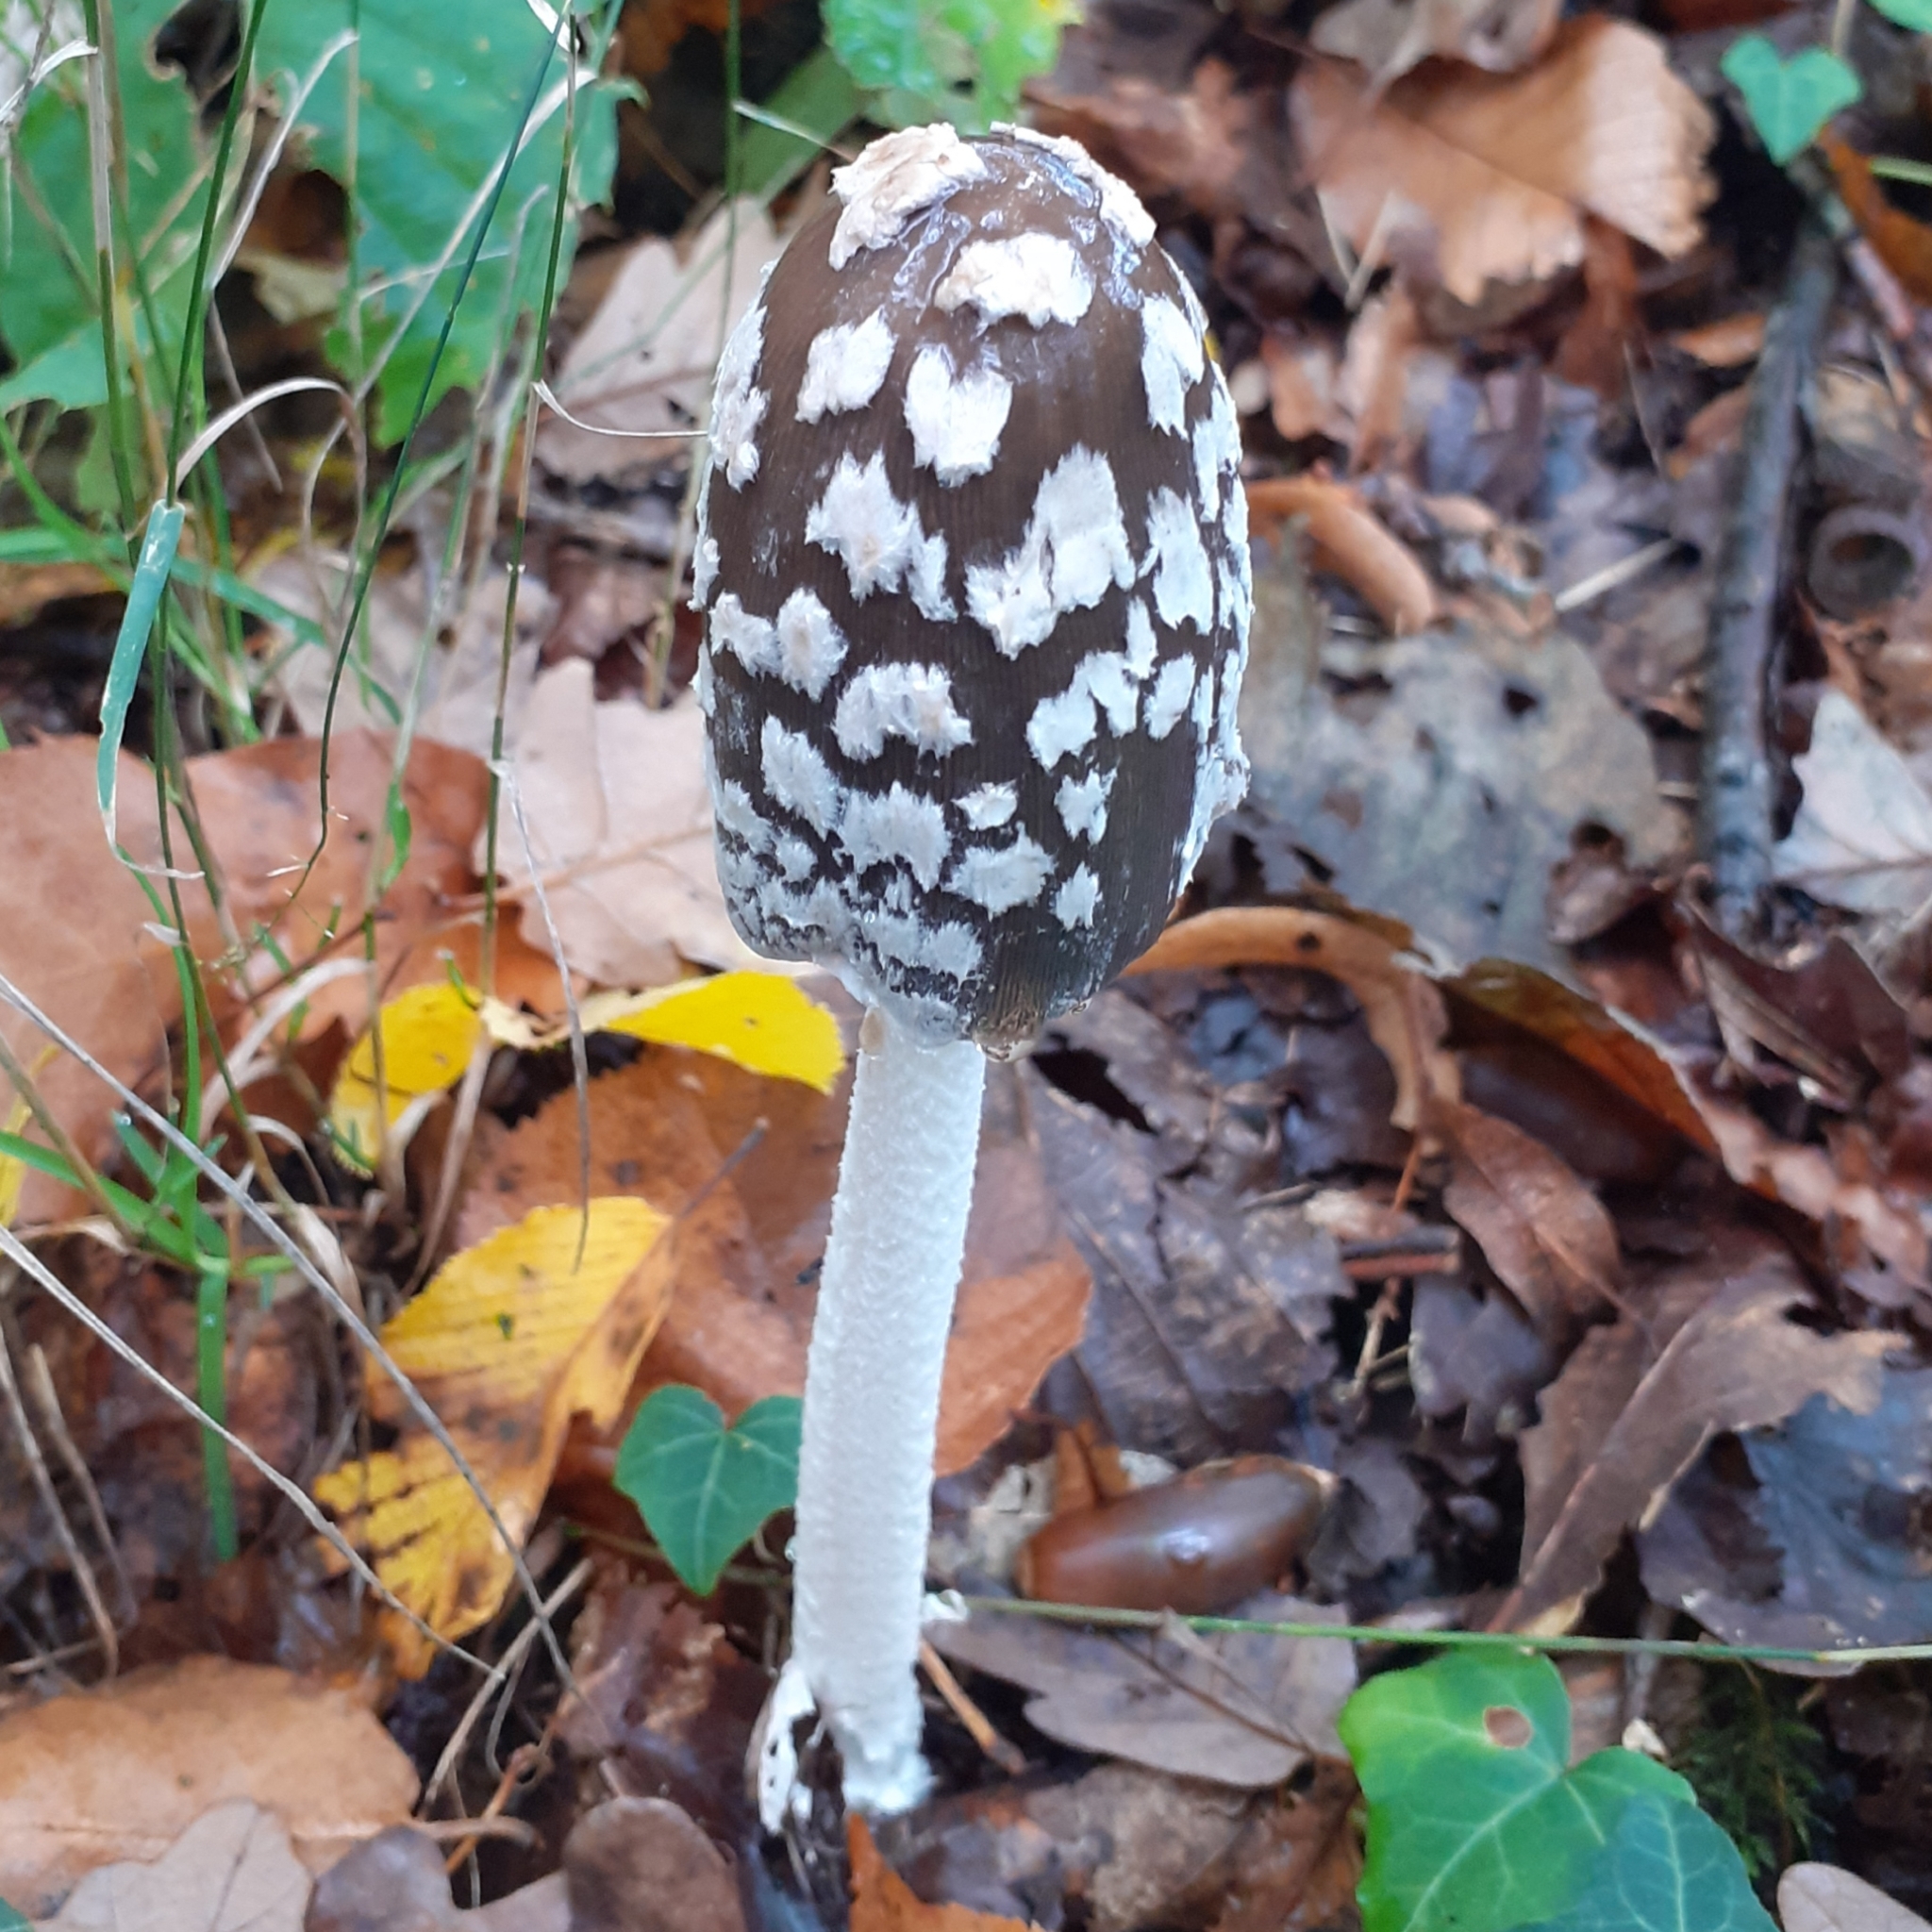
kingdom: Fungi
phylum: Basidiomycota
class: Agaricomycetes
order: Agaricales
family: Psathyrellaceae
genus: Coprinopsis
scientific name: Coprinopsis picacea
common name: Magpie inkcap
